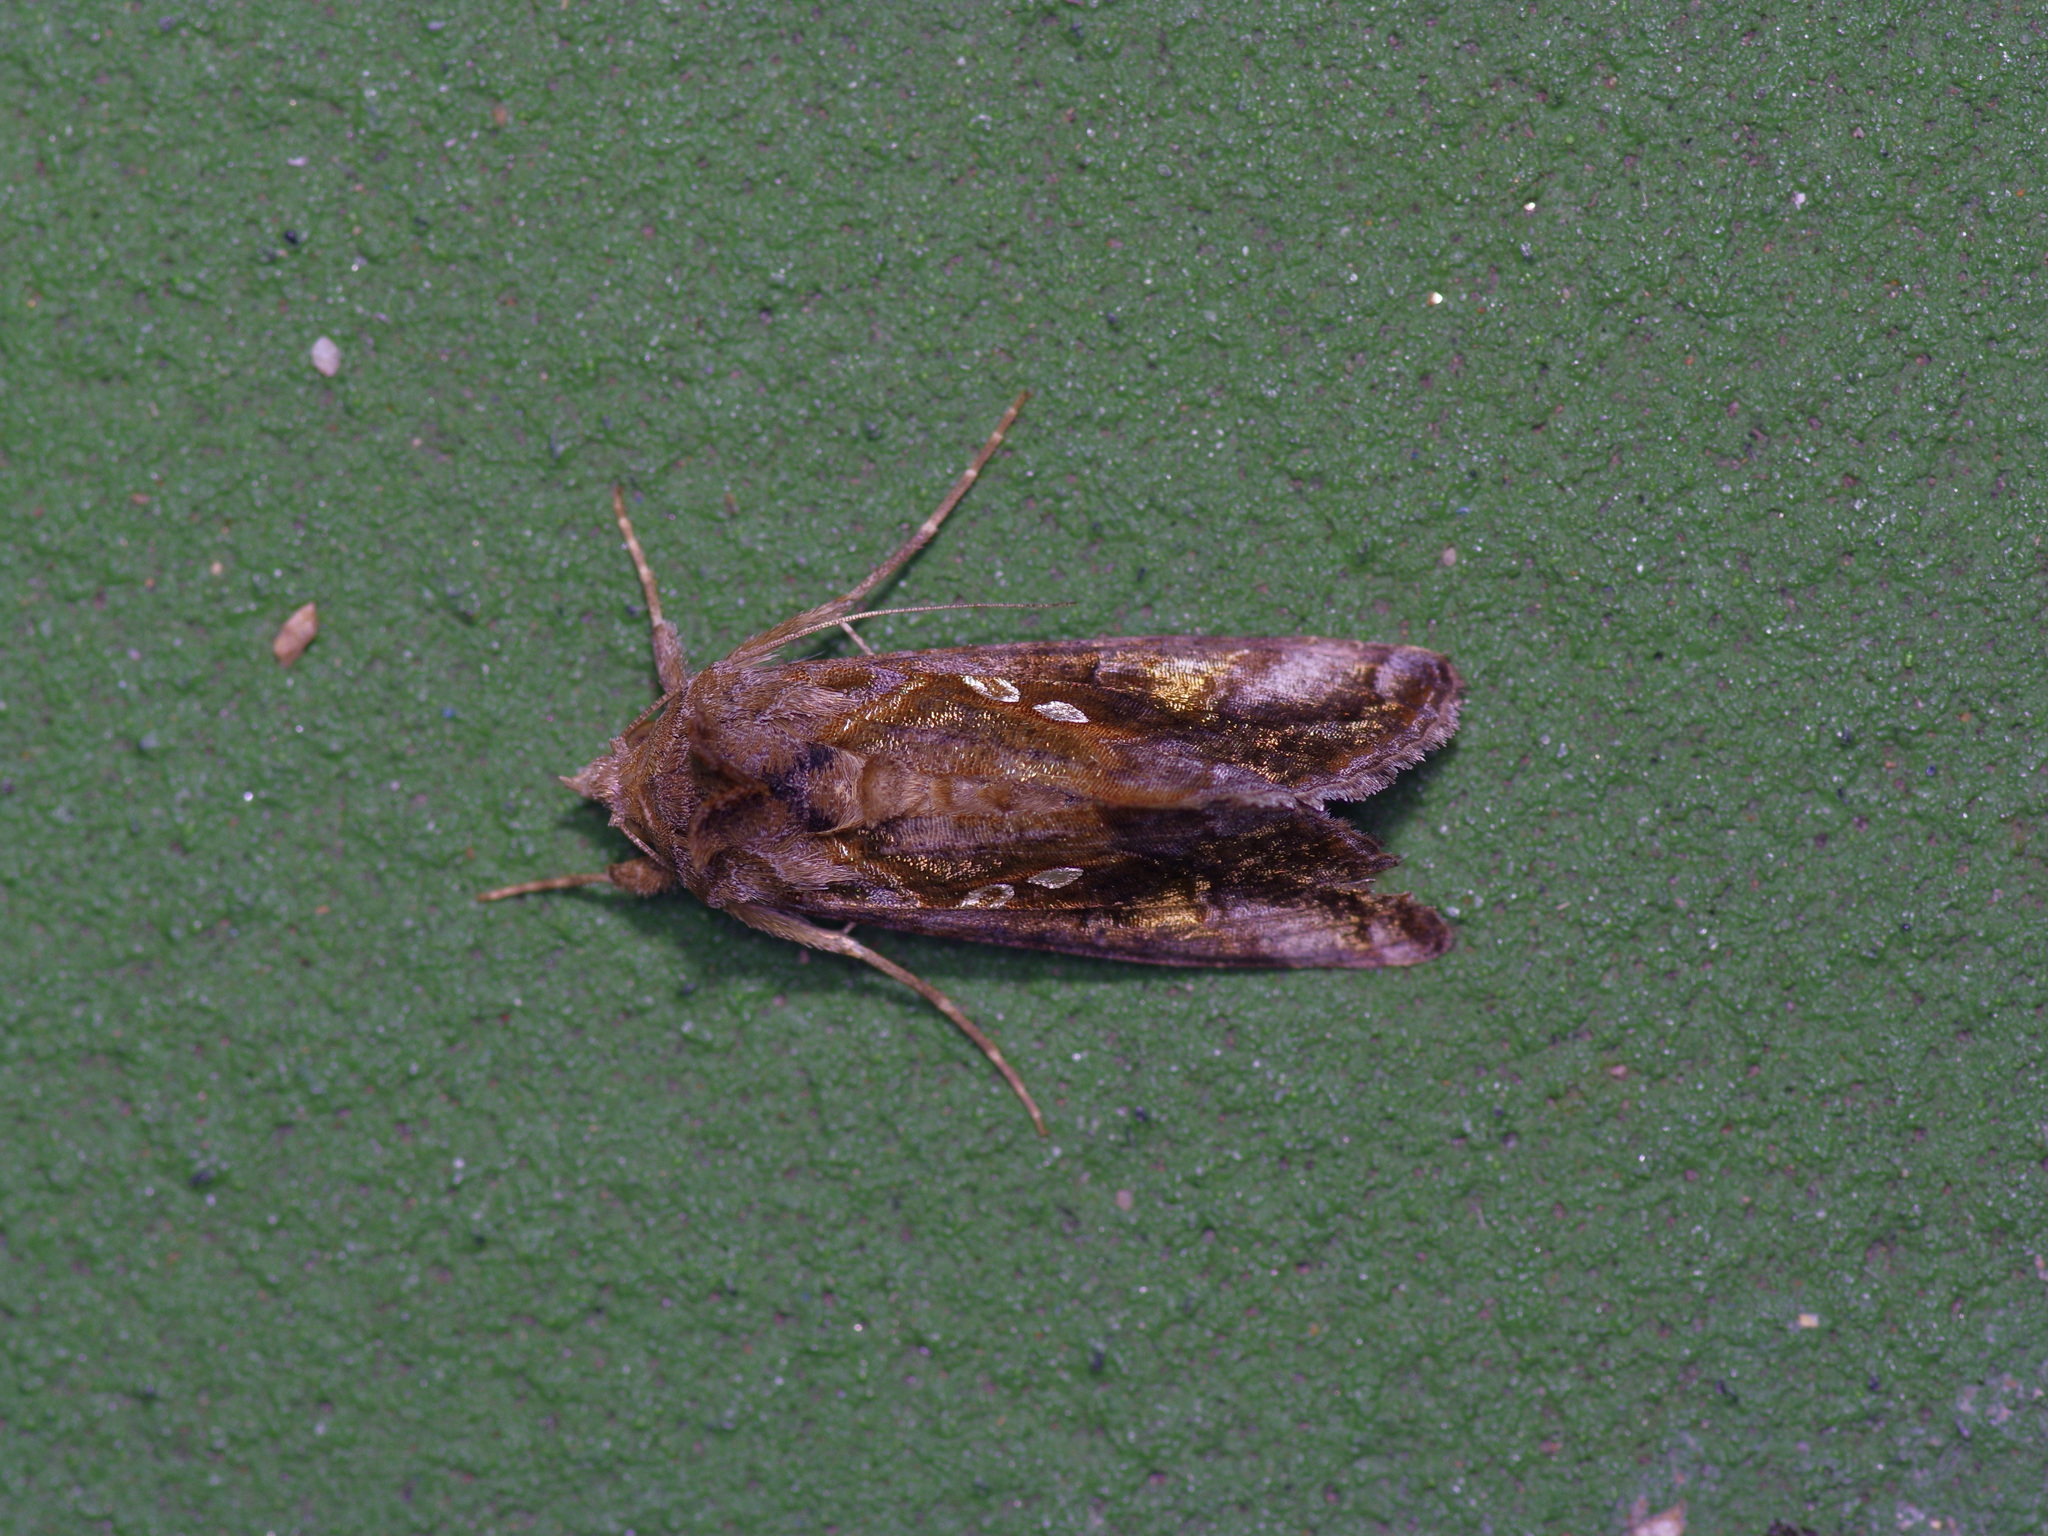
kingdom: Animalia
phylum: Arthropoda
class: Insecta
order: Lepidoptera
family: Noctuidae
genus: Chrysodeixis
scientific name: Chrysodeixis includens
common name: Cutworm moth
